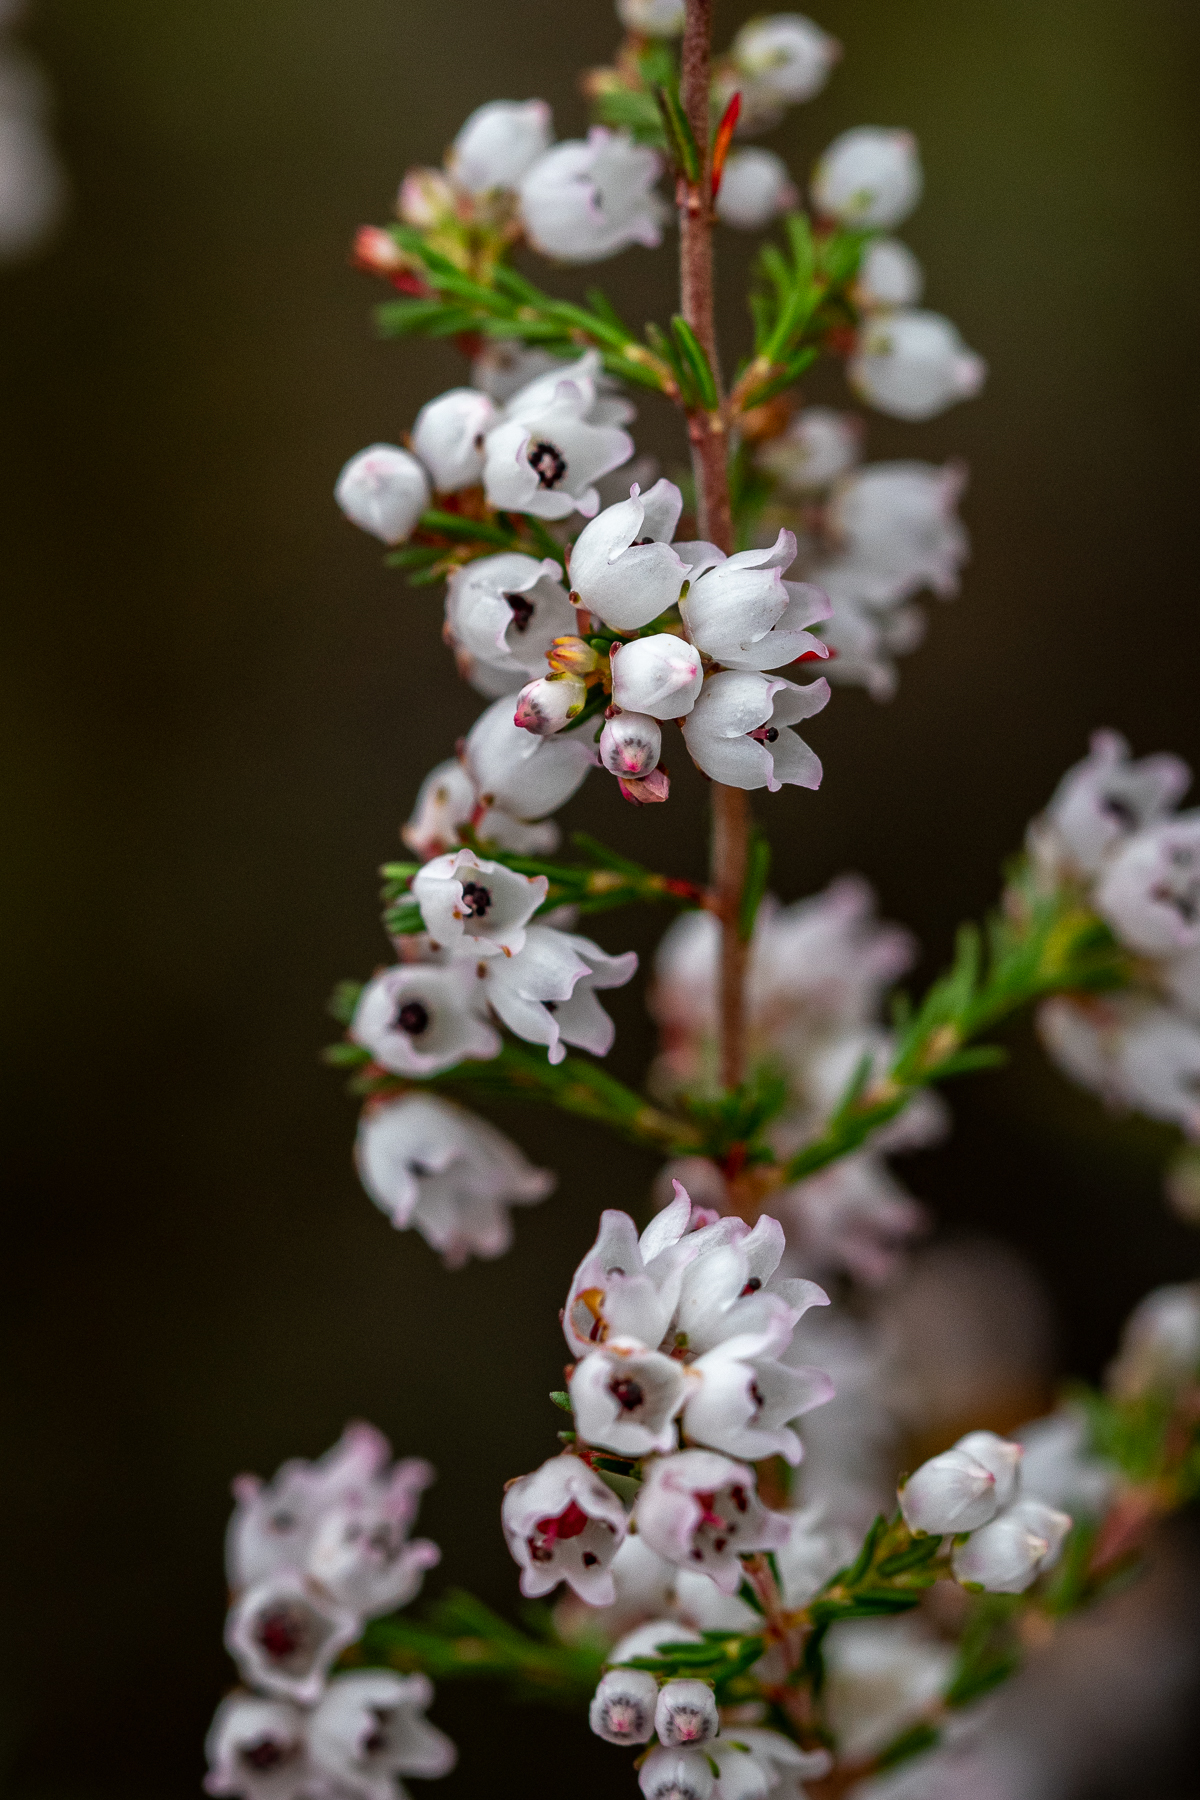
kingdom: Plantae
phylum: Tracheophyta
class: Magnoliopsida
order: Ericales
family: Ericaceae
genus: Erica
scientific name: Erica quadrangularis
